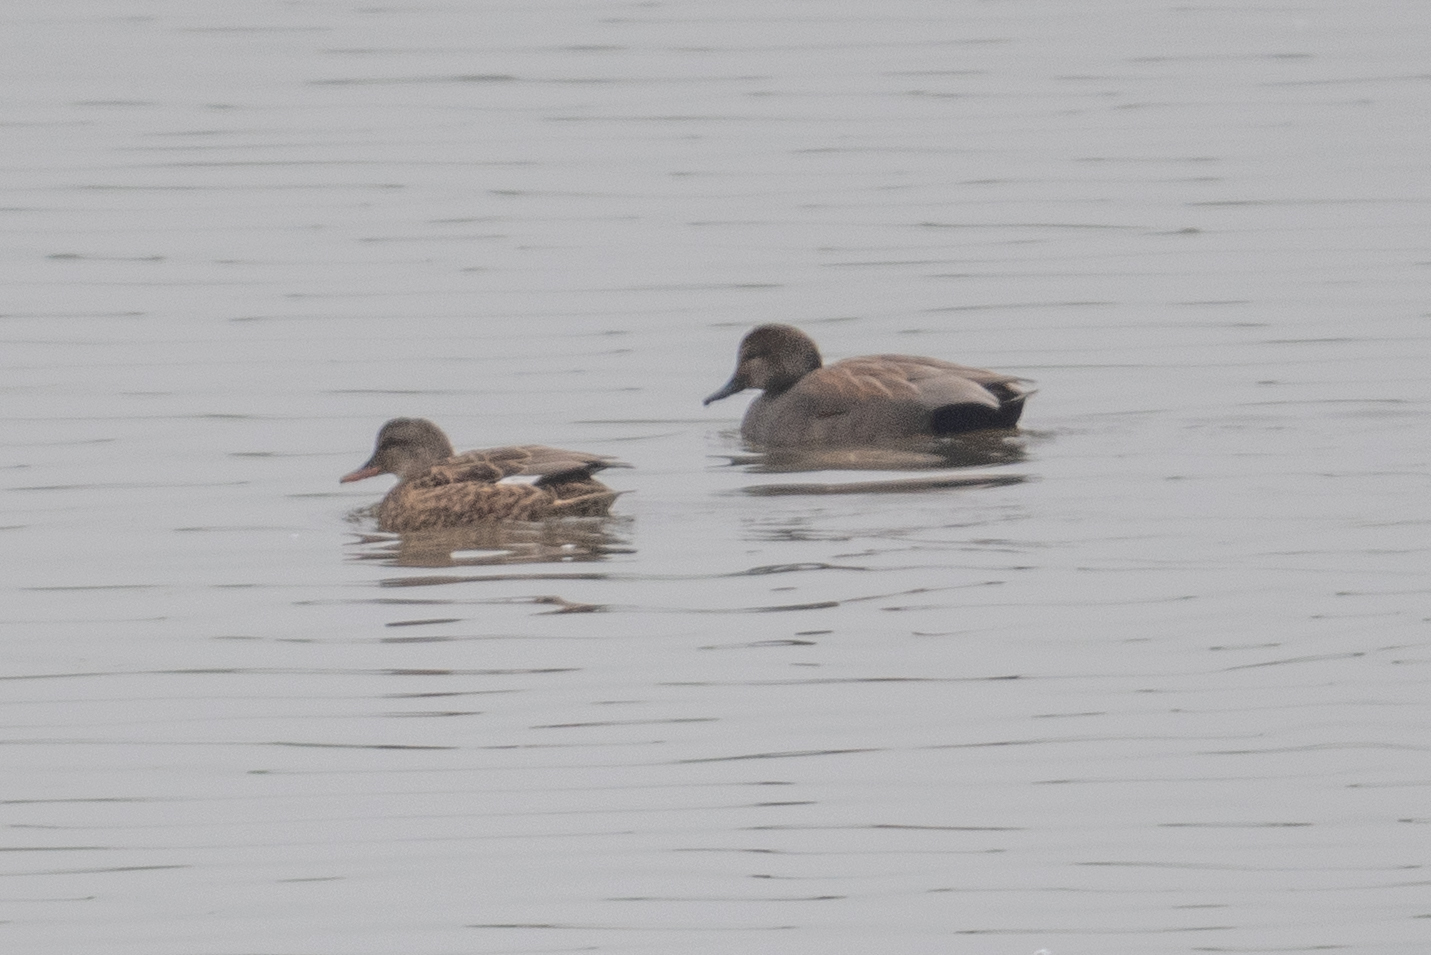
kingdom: Animalia
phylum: Chordata
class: Aves
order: Anseriformes
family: Anatidae
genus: Mareca
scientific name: Mareca strepera
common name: Gadwall
